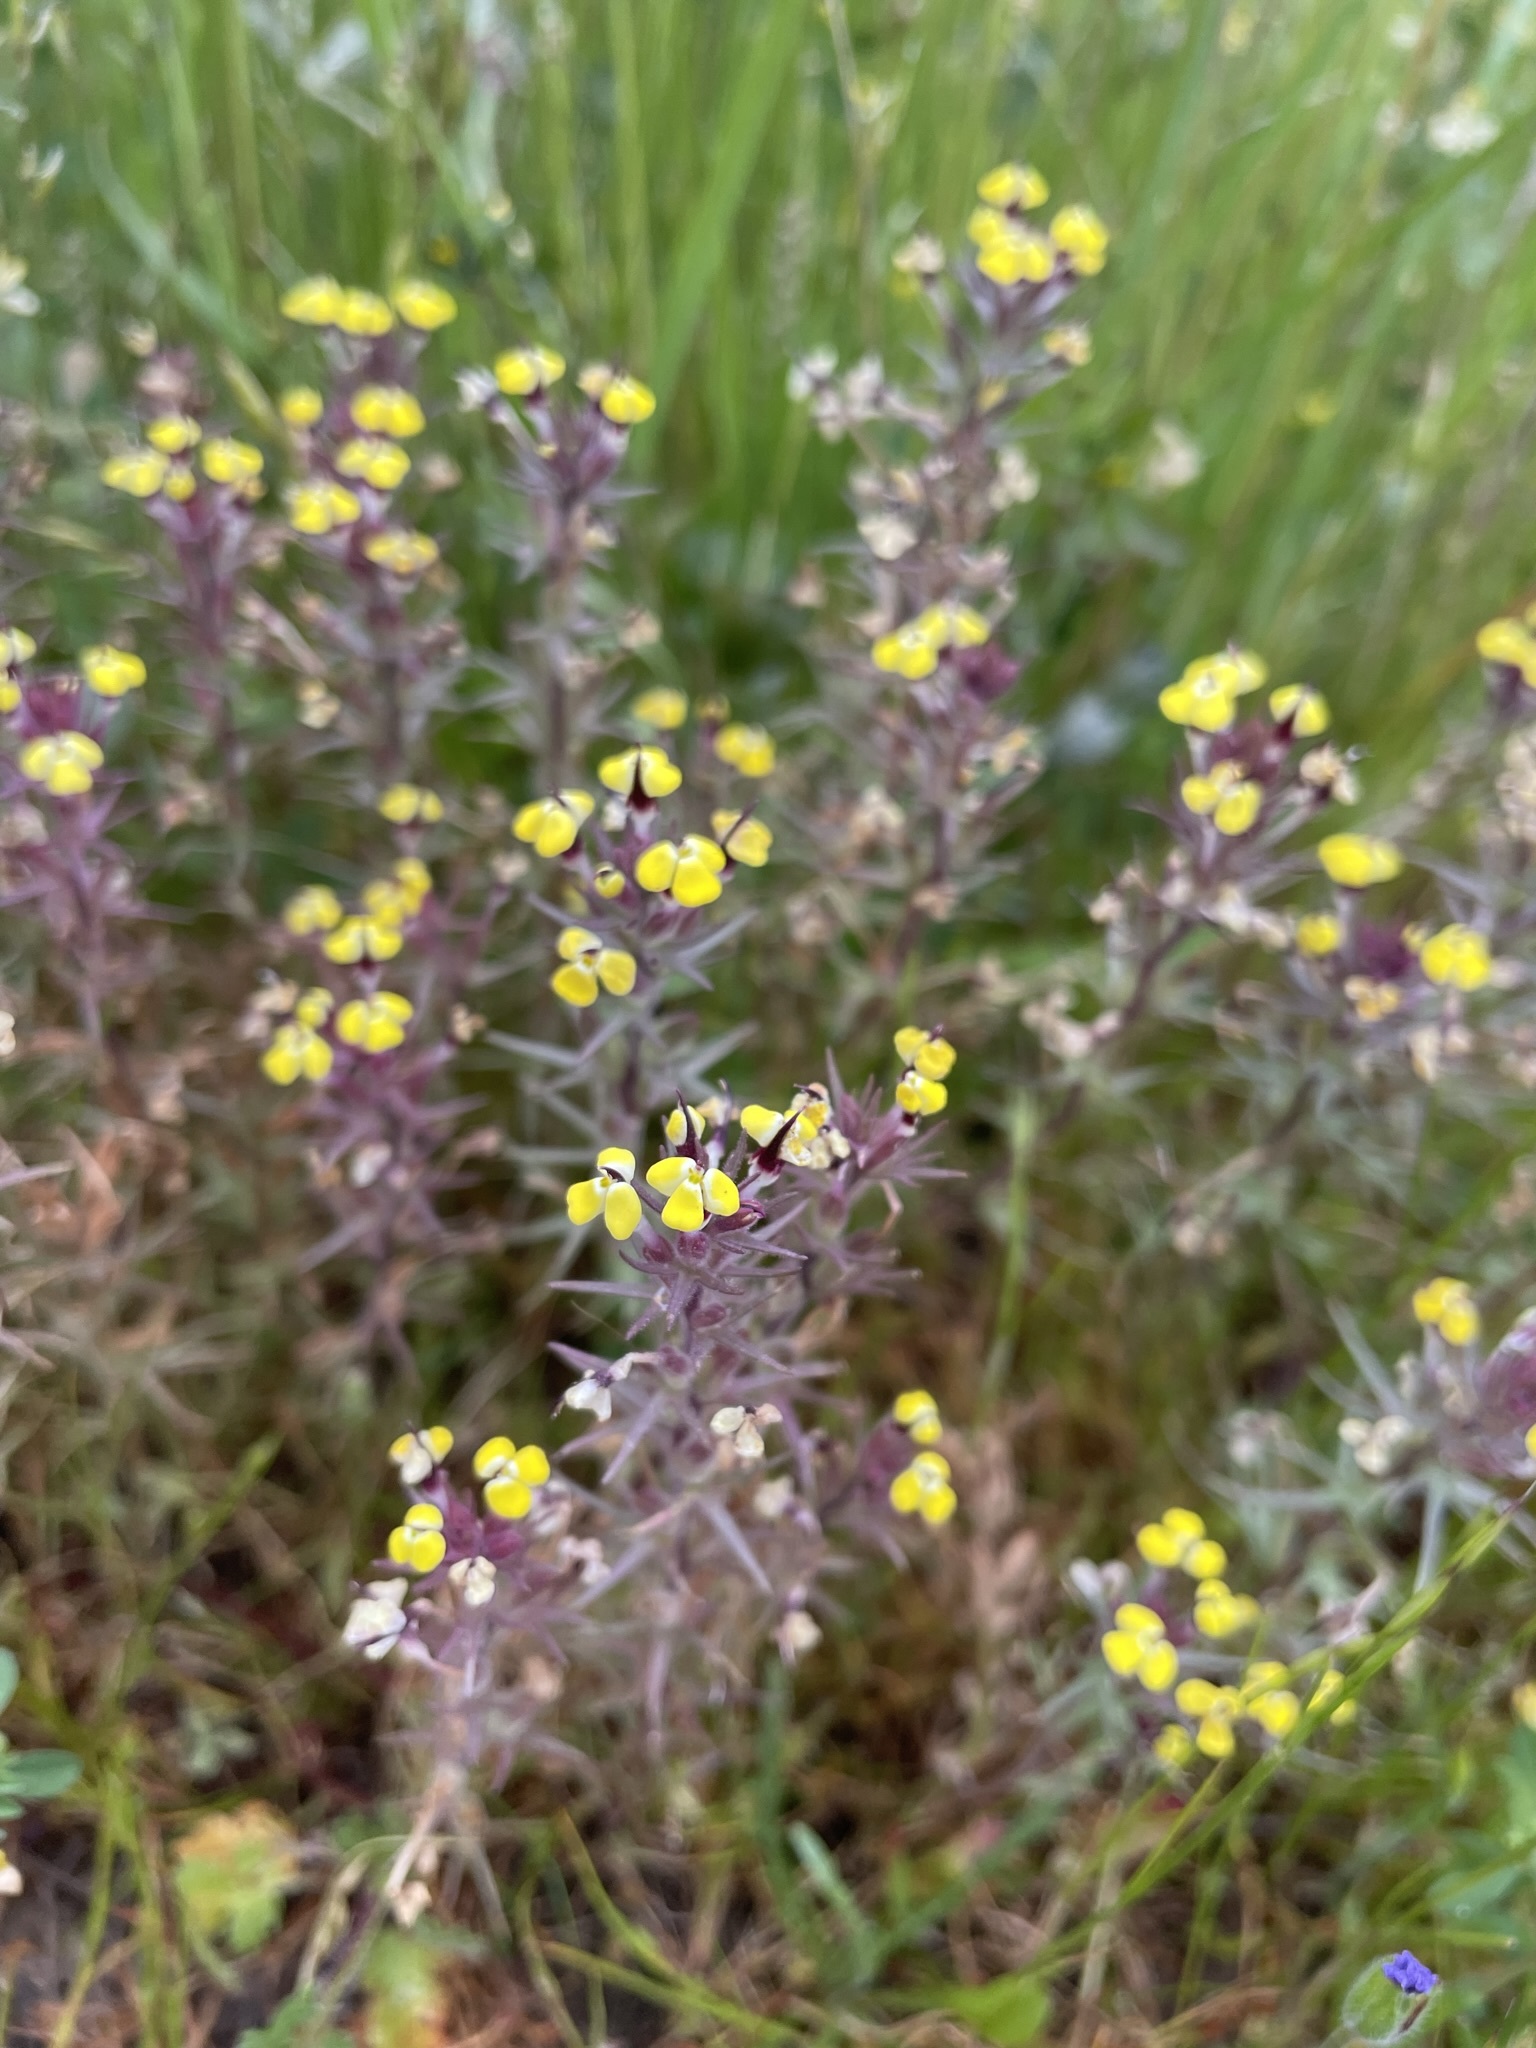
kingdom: Plantae
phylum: Tracheophyta
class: Magnoliopsida
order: Lamiales
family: Orobanchaceae
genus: Triphysaria
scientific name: Triphysaria eriantha
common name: Johnny-tuck
